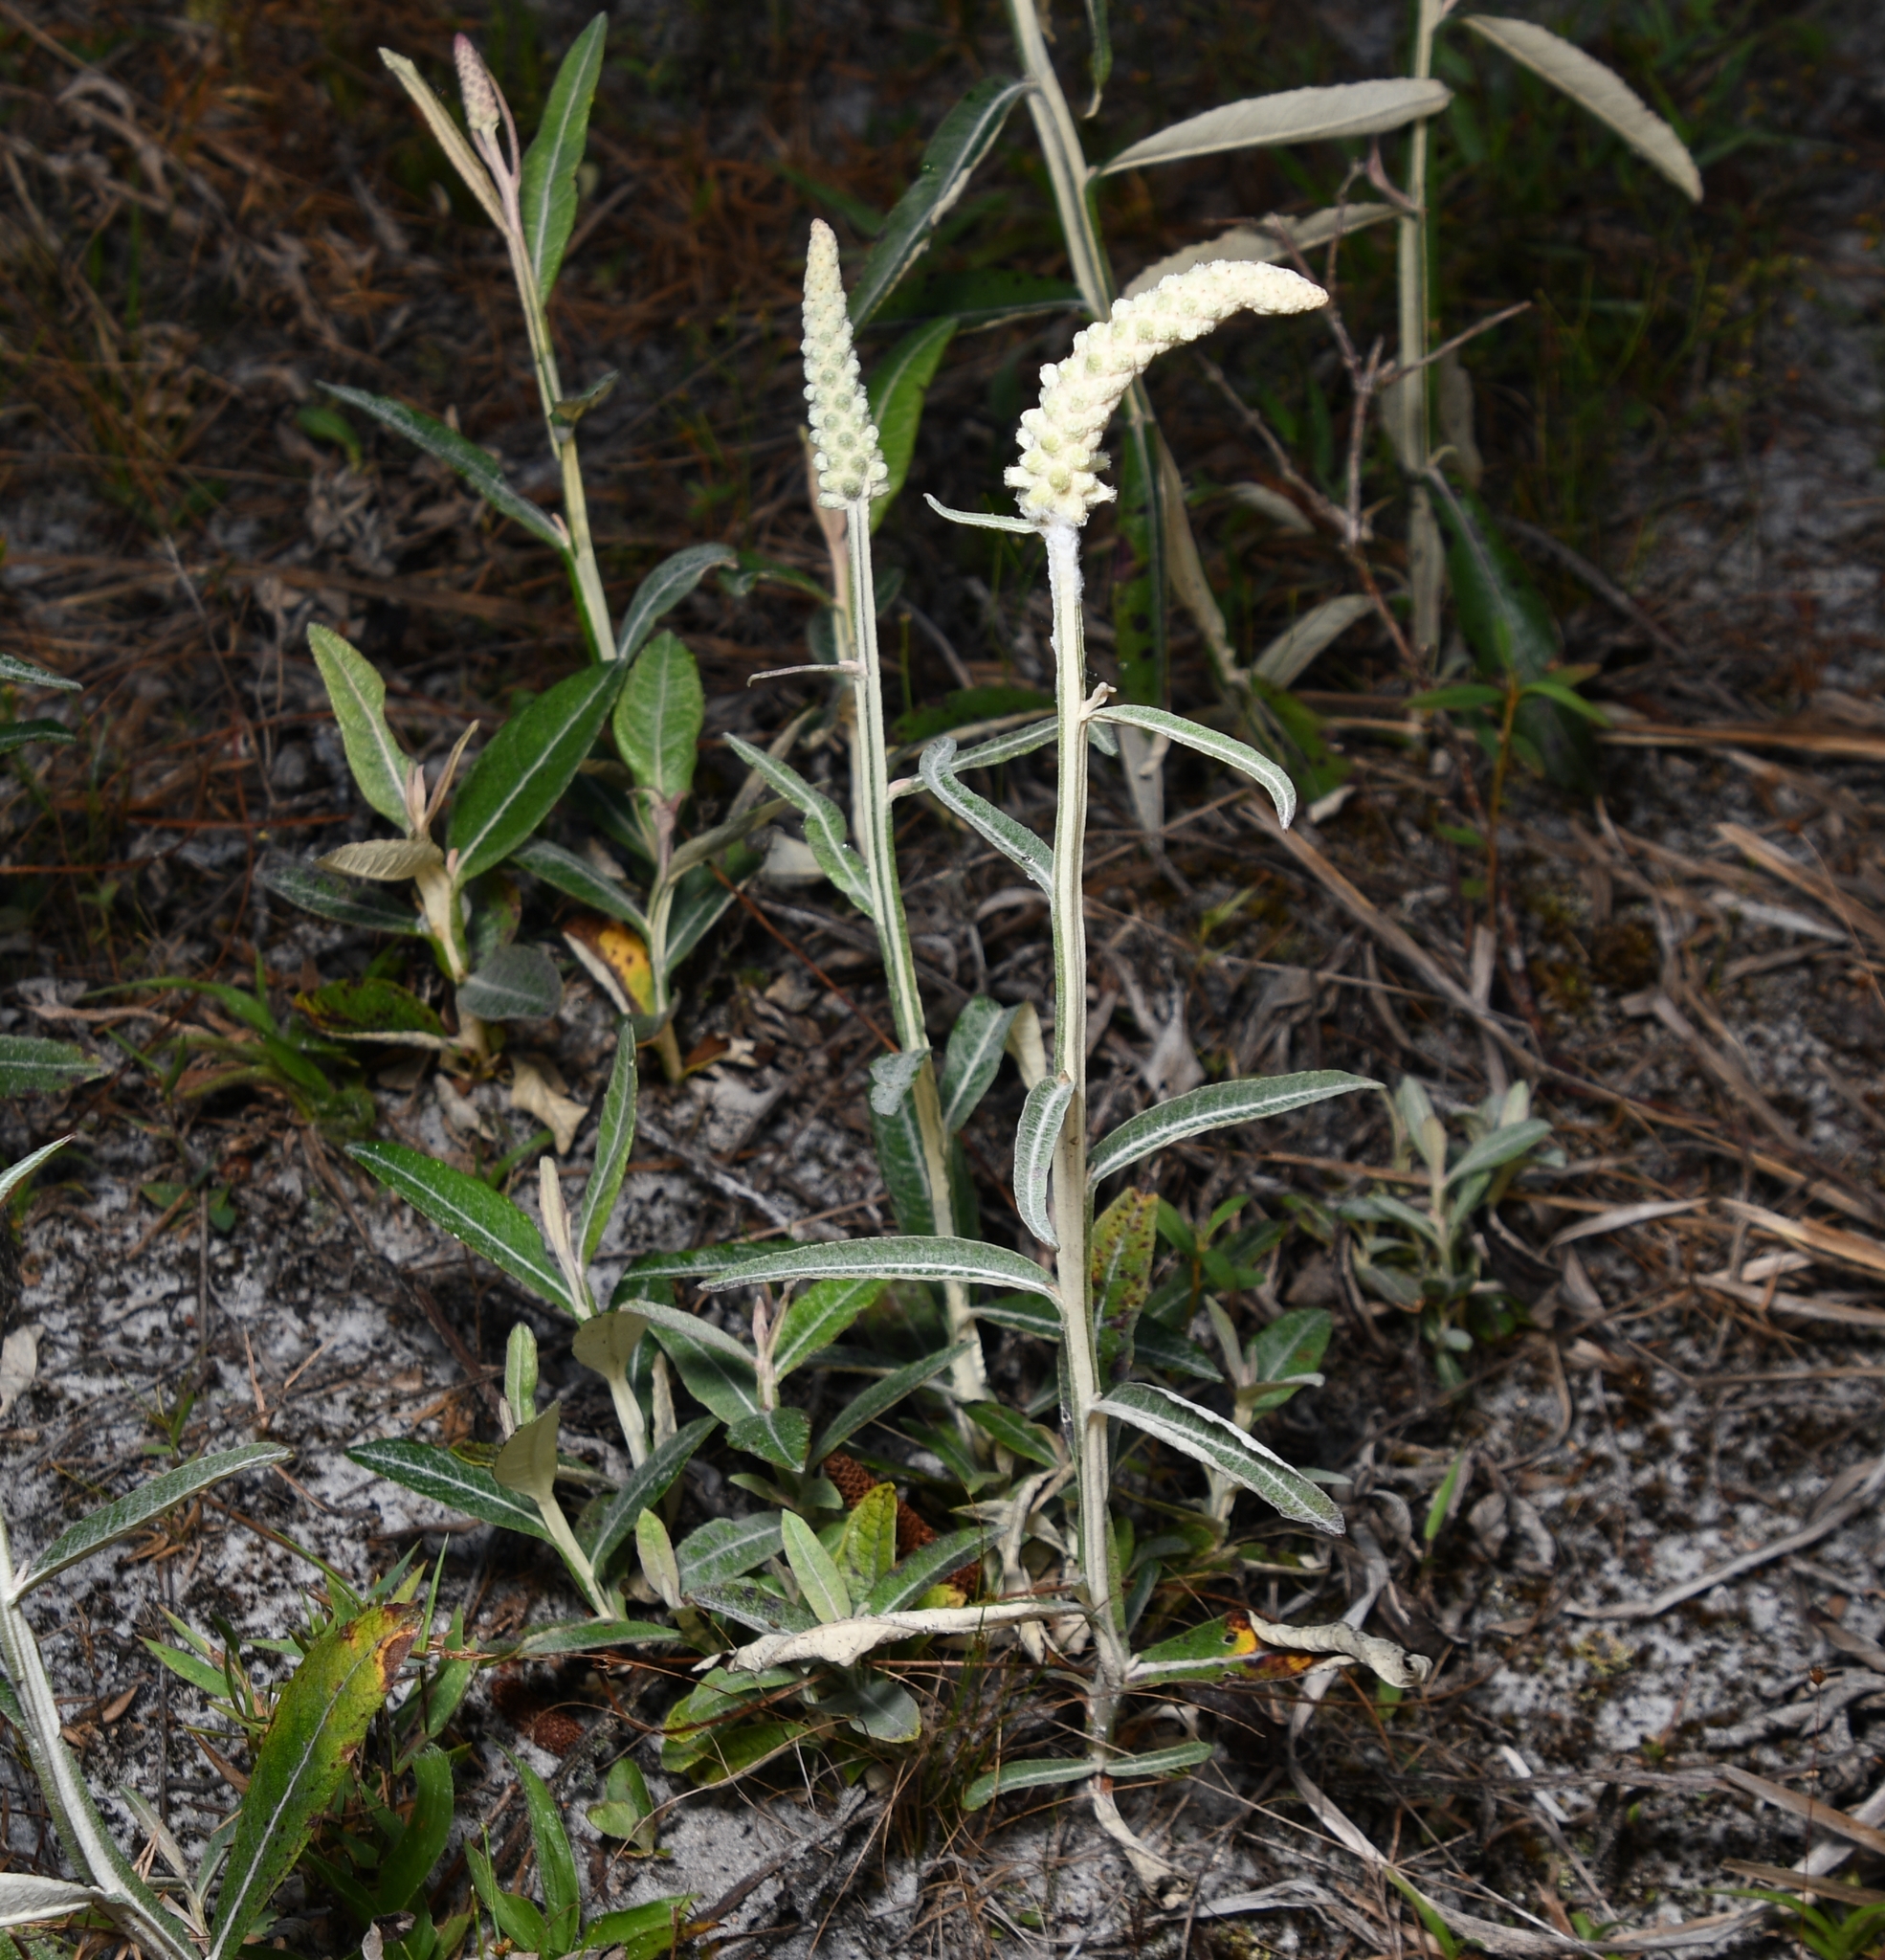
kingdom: Plantae
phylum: Tracheophyta
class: Magnoliopsida
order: Asterales
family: Asteraceae
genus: Pterocaulon
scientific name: Pterocaulon pycnostachyum
